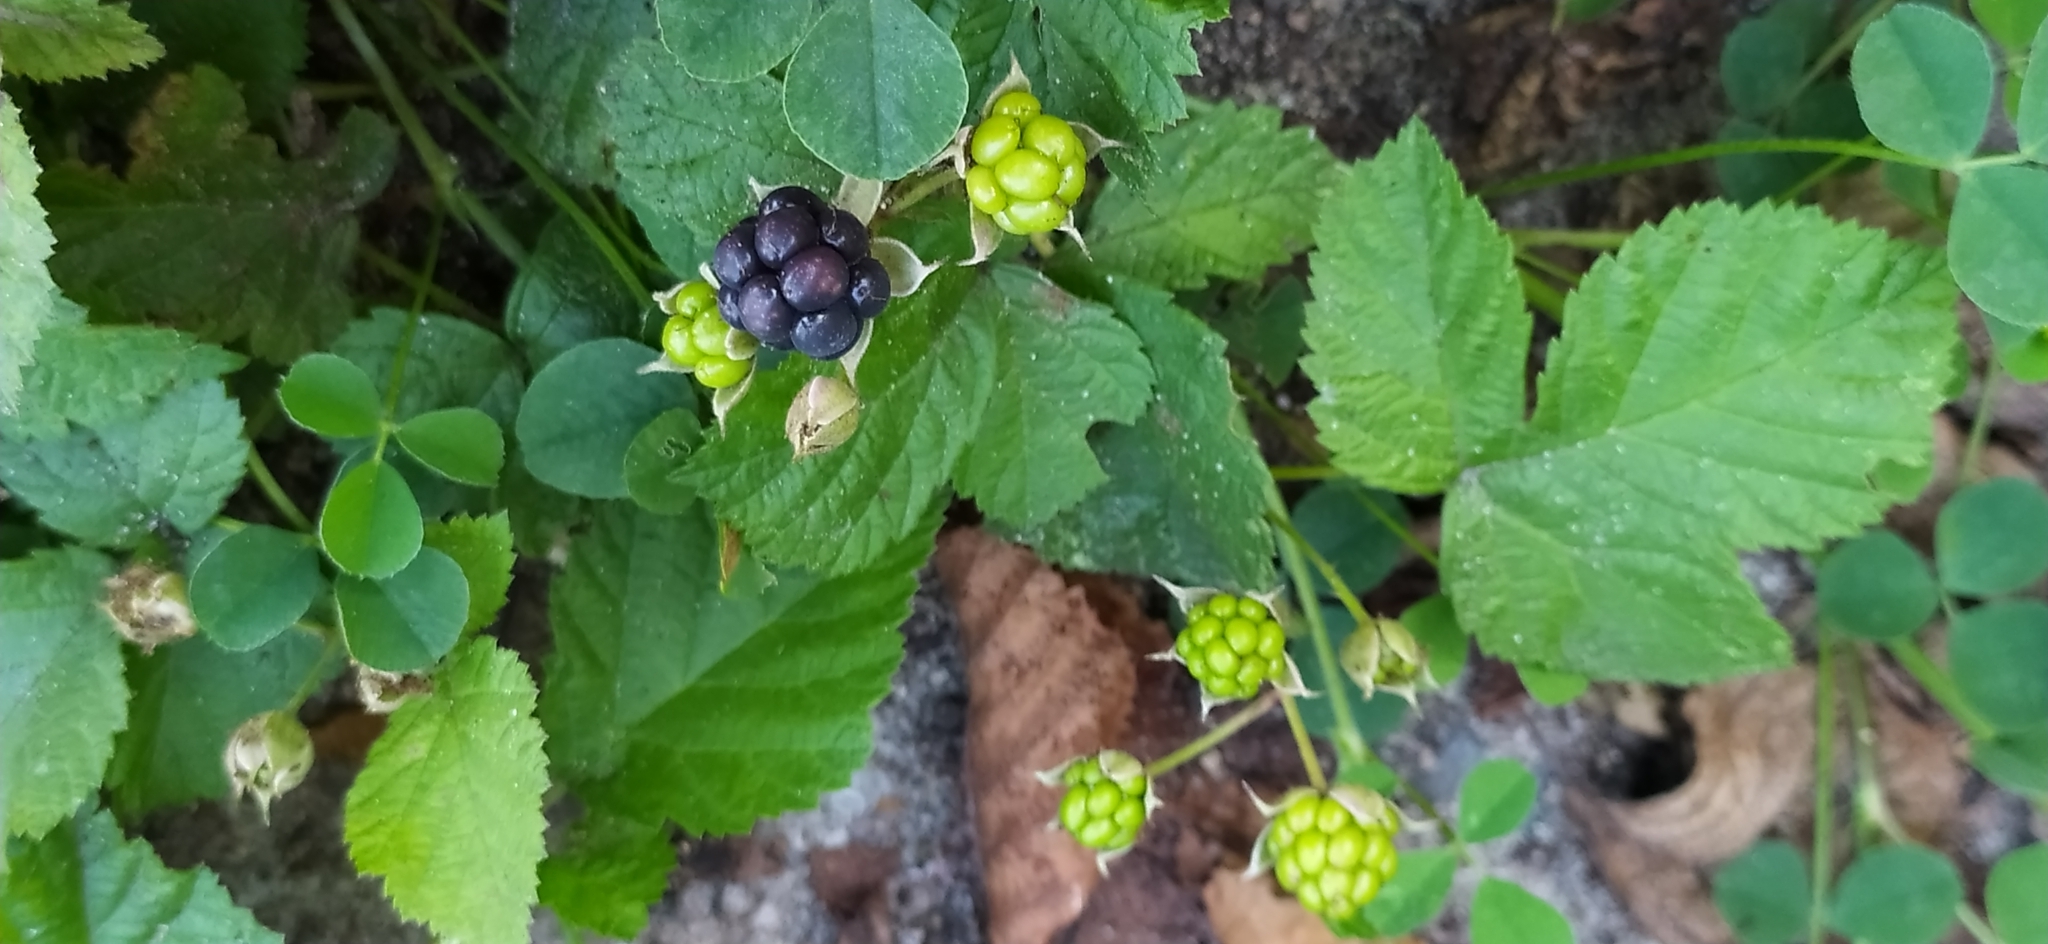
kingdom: Plantae
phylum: Tracheophyta
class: Magnoliopsida
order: Rosales
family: Rosaceae
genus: Rubus
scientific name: Rubus caesius
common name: Dewberry
